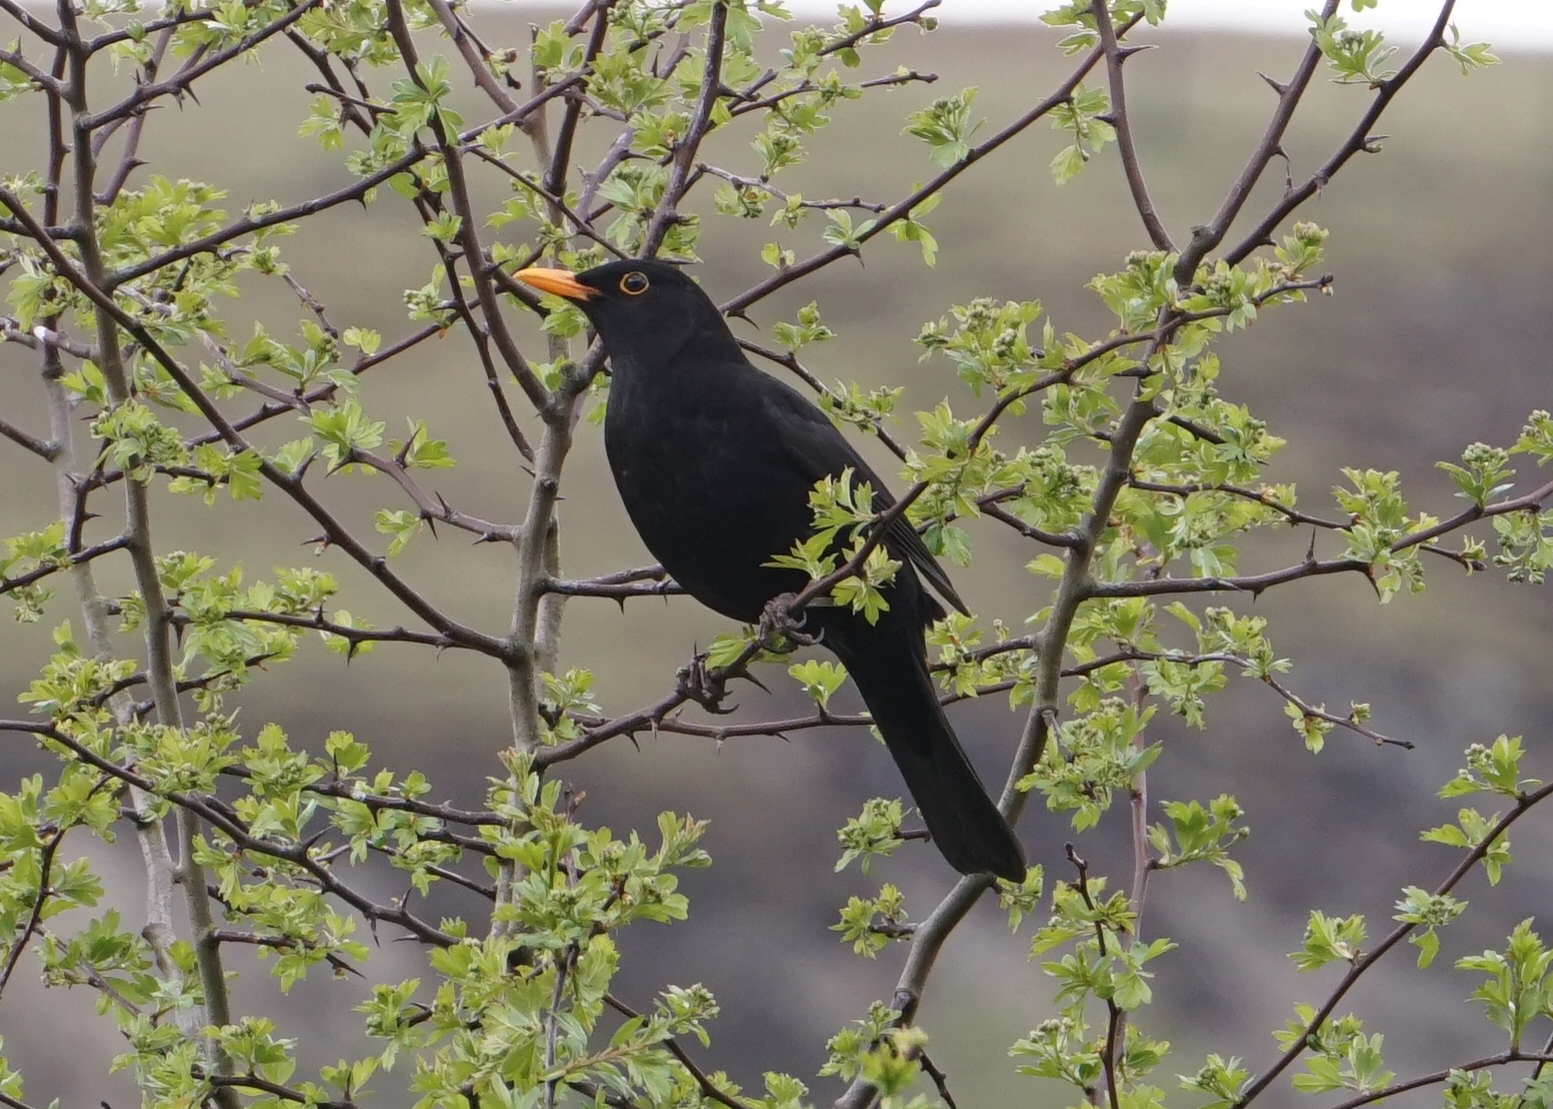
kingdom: Animalia
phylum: Chordata
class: Aves
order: Passeriformes
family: Turdidae
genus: Turdus
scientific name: Turdus merula
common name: Common blackbird
